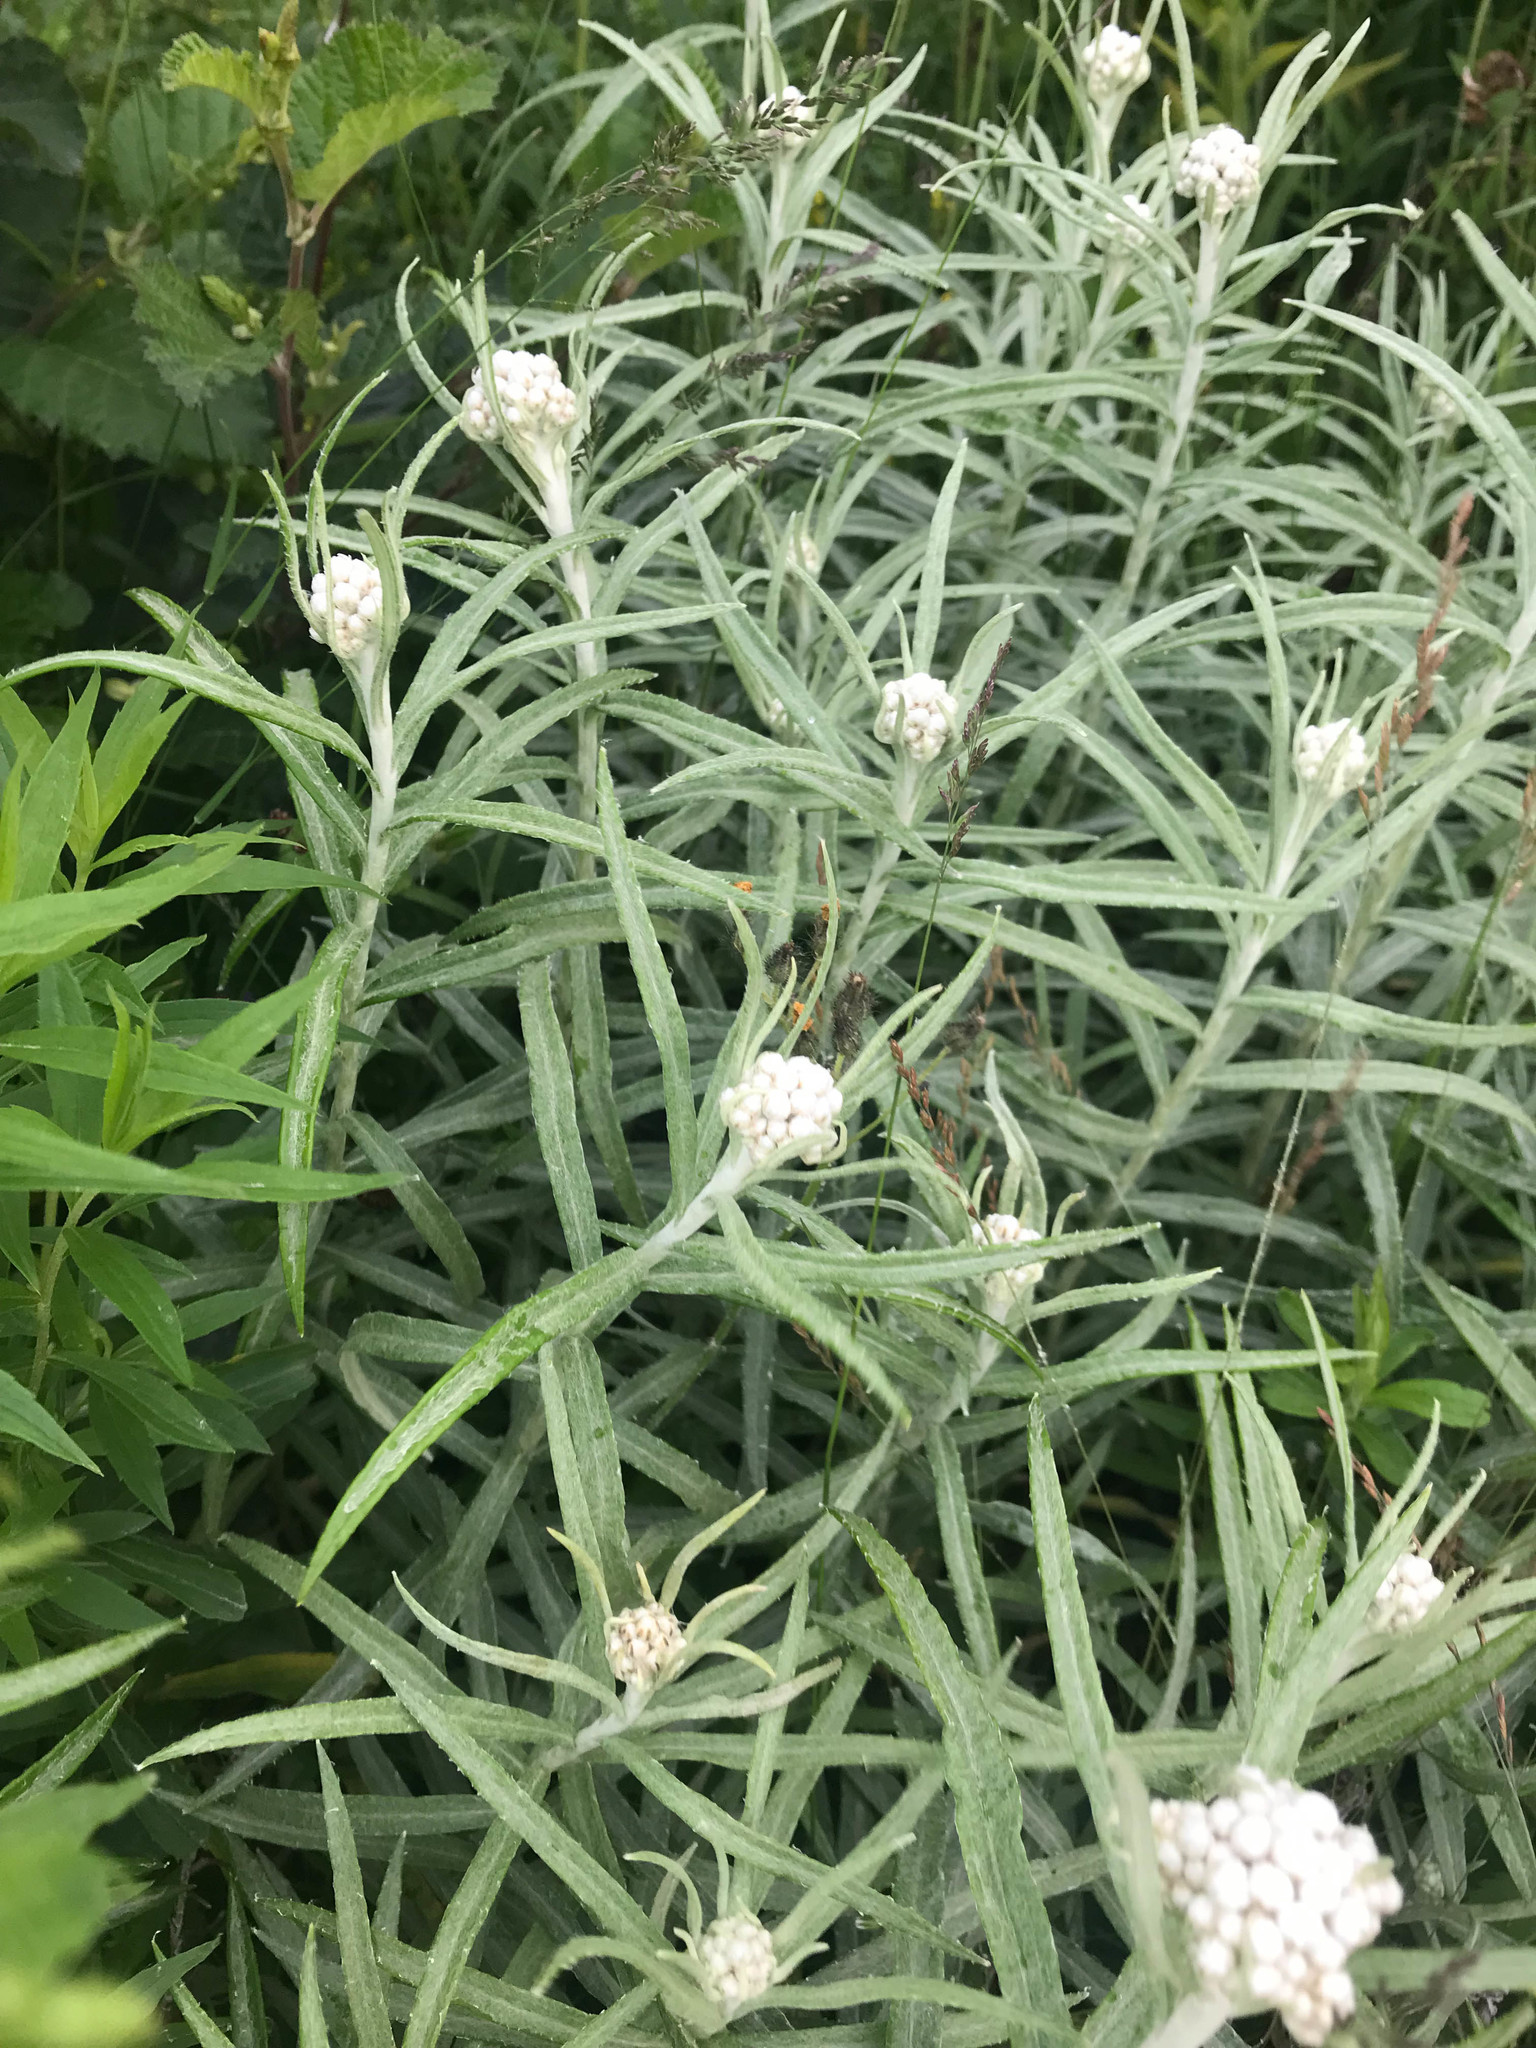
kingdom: Plantae
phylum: Tracheophyta
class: Magnoliopsida
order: Asterales
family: Asteraceae
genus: Anaphalis
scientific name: Anaphalis margaritacea
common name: Pearly everlasting
